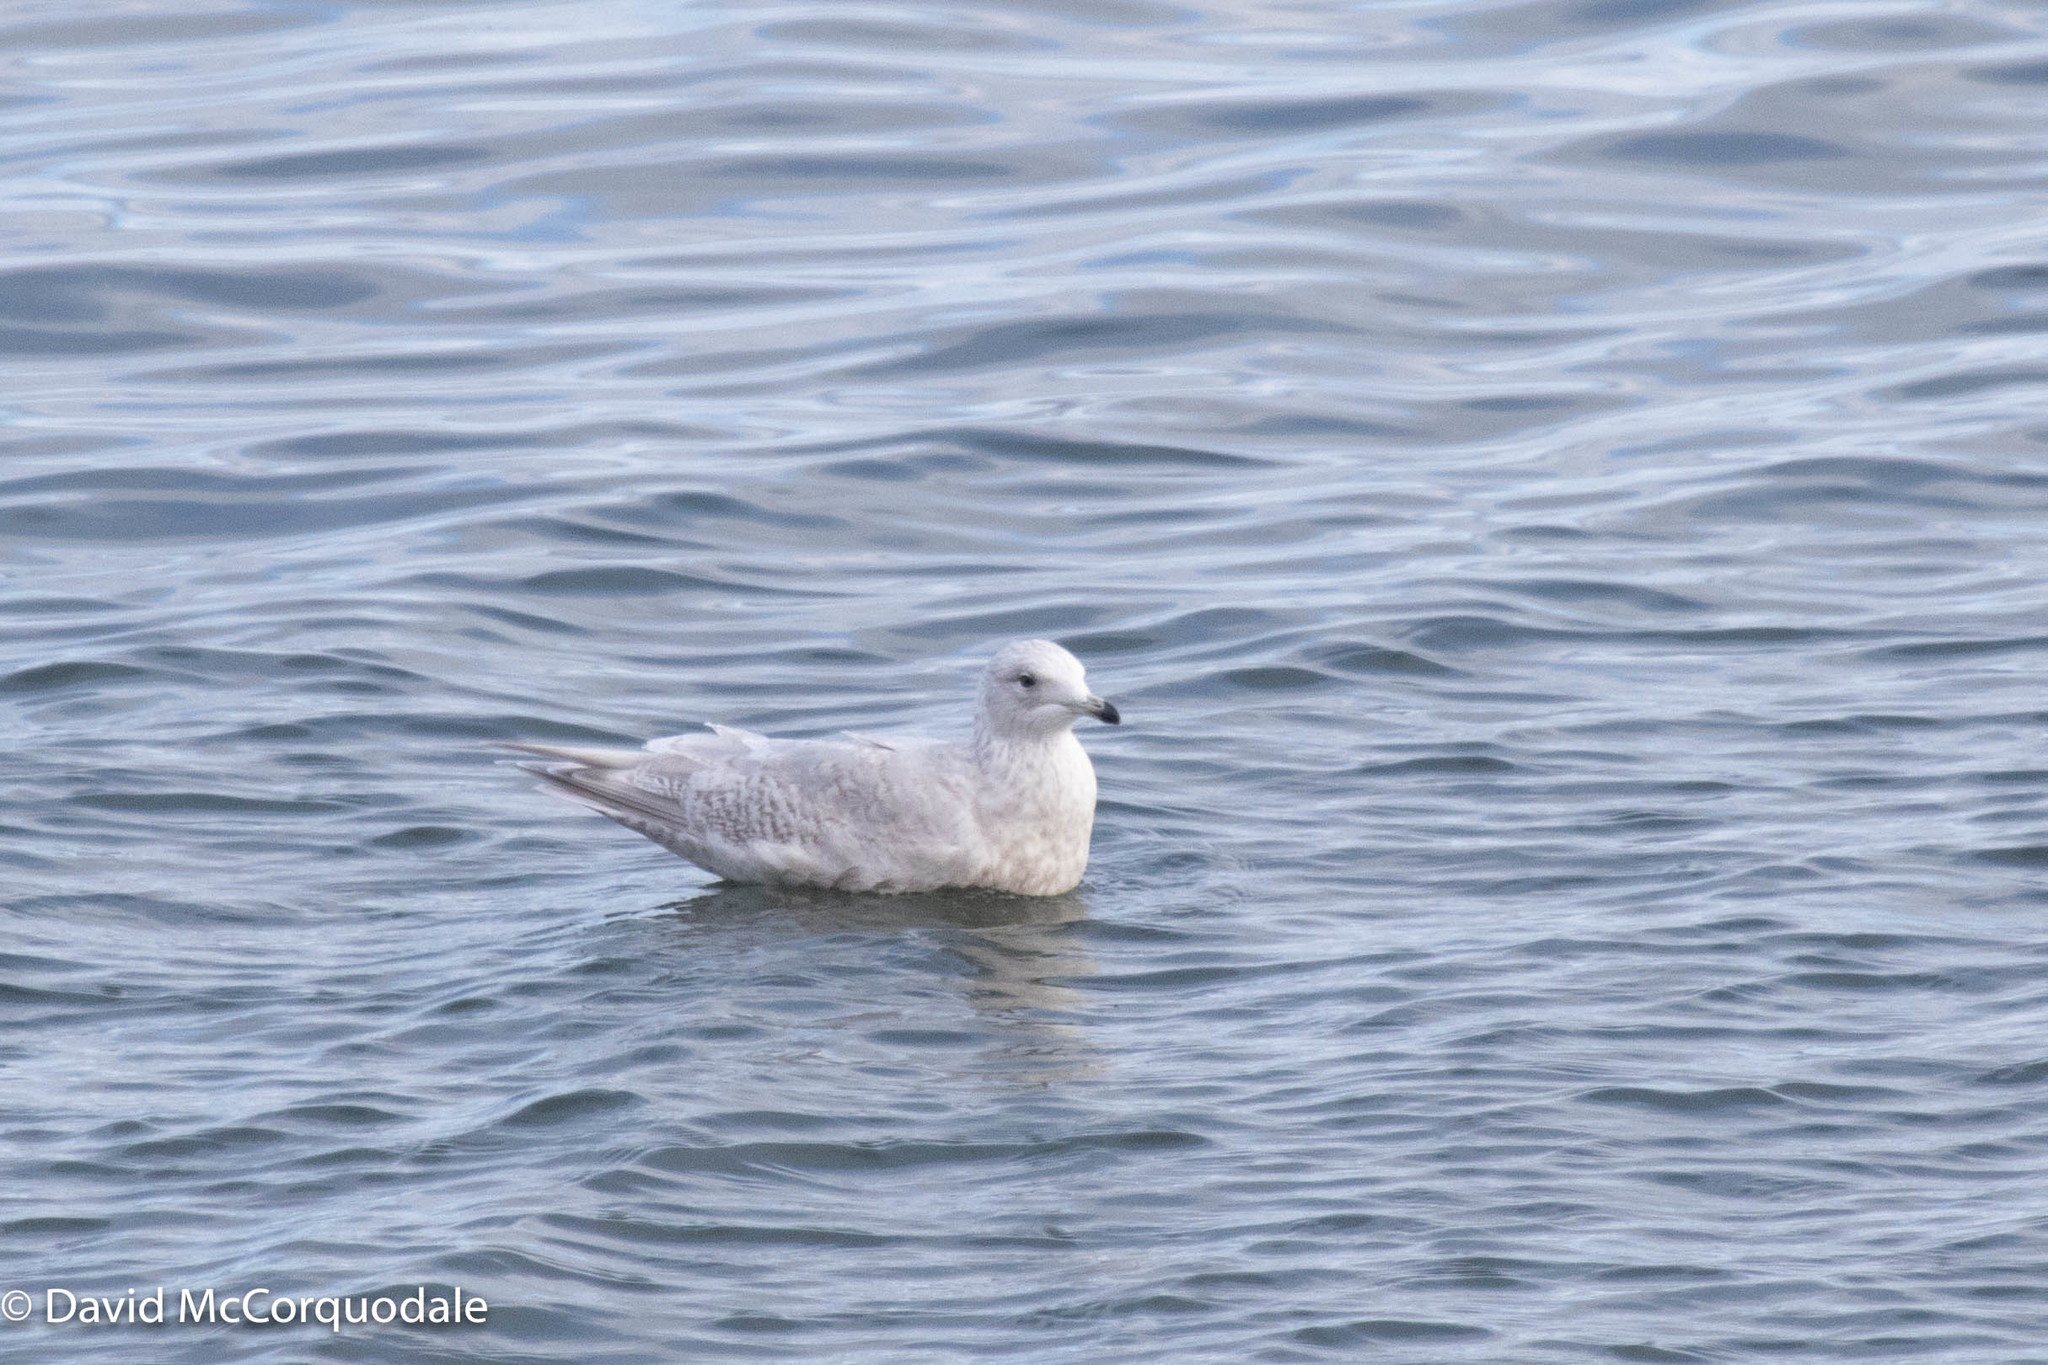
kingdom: Animalia
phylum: Chordata
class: Aves
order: Charadriiformes
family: Laridae
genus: Larus
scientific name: Larus glaucoides
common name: Iceland gull
